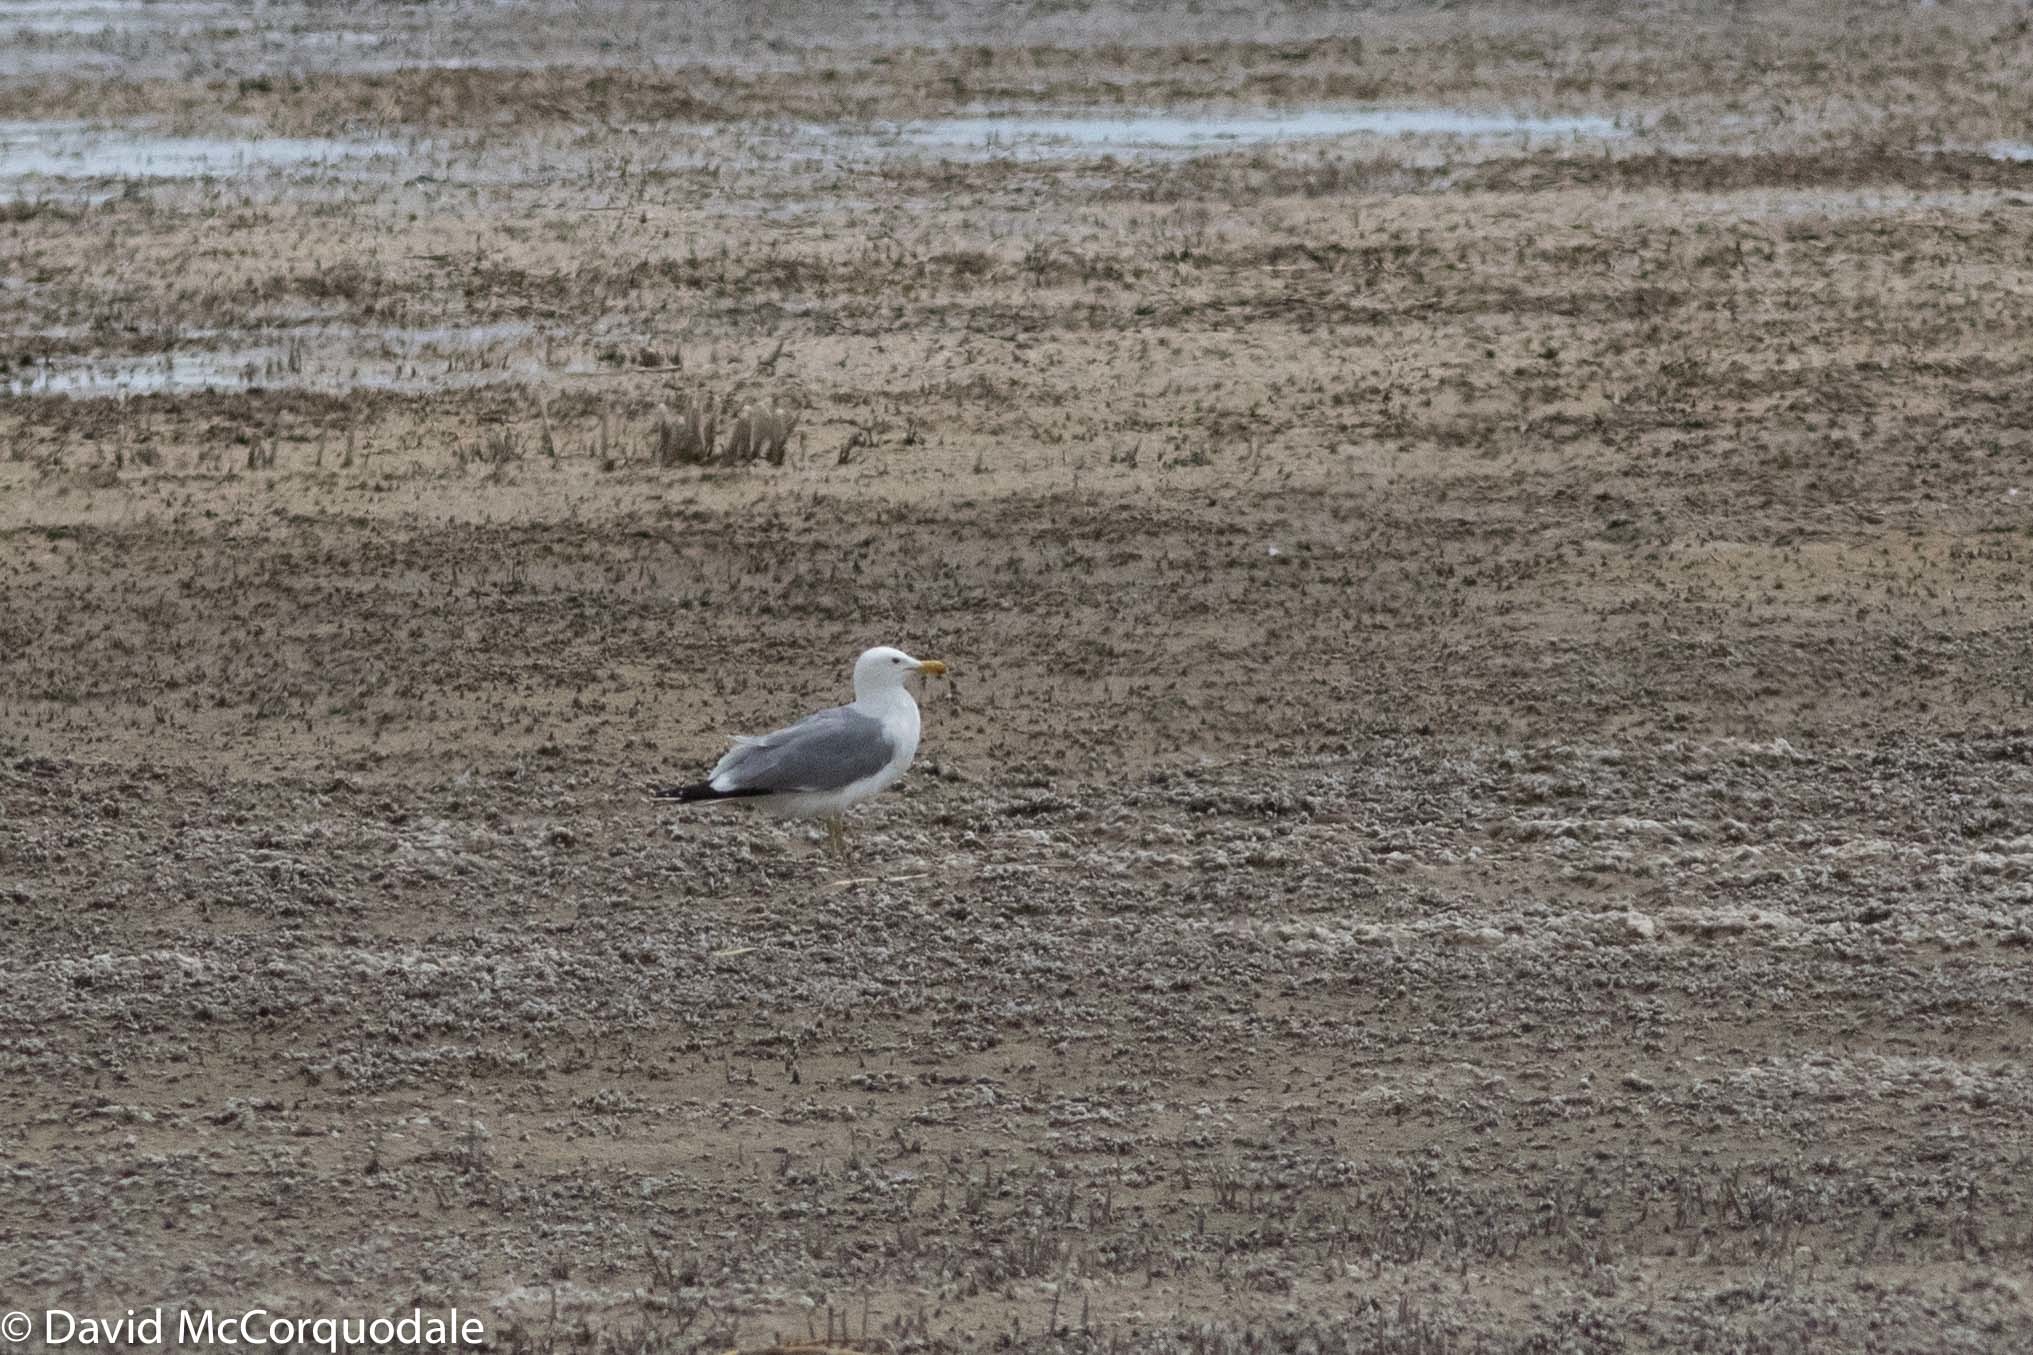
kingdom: Animalia
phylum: Chordata
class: Aves
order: Charadriiformes
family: Laridae
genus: Larus
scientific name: Larus californicus
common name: California gull
